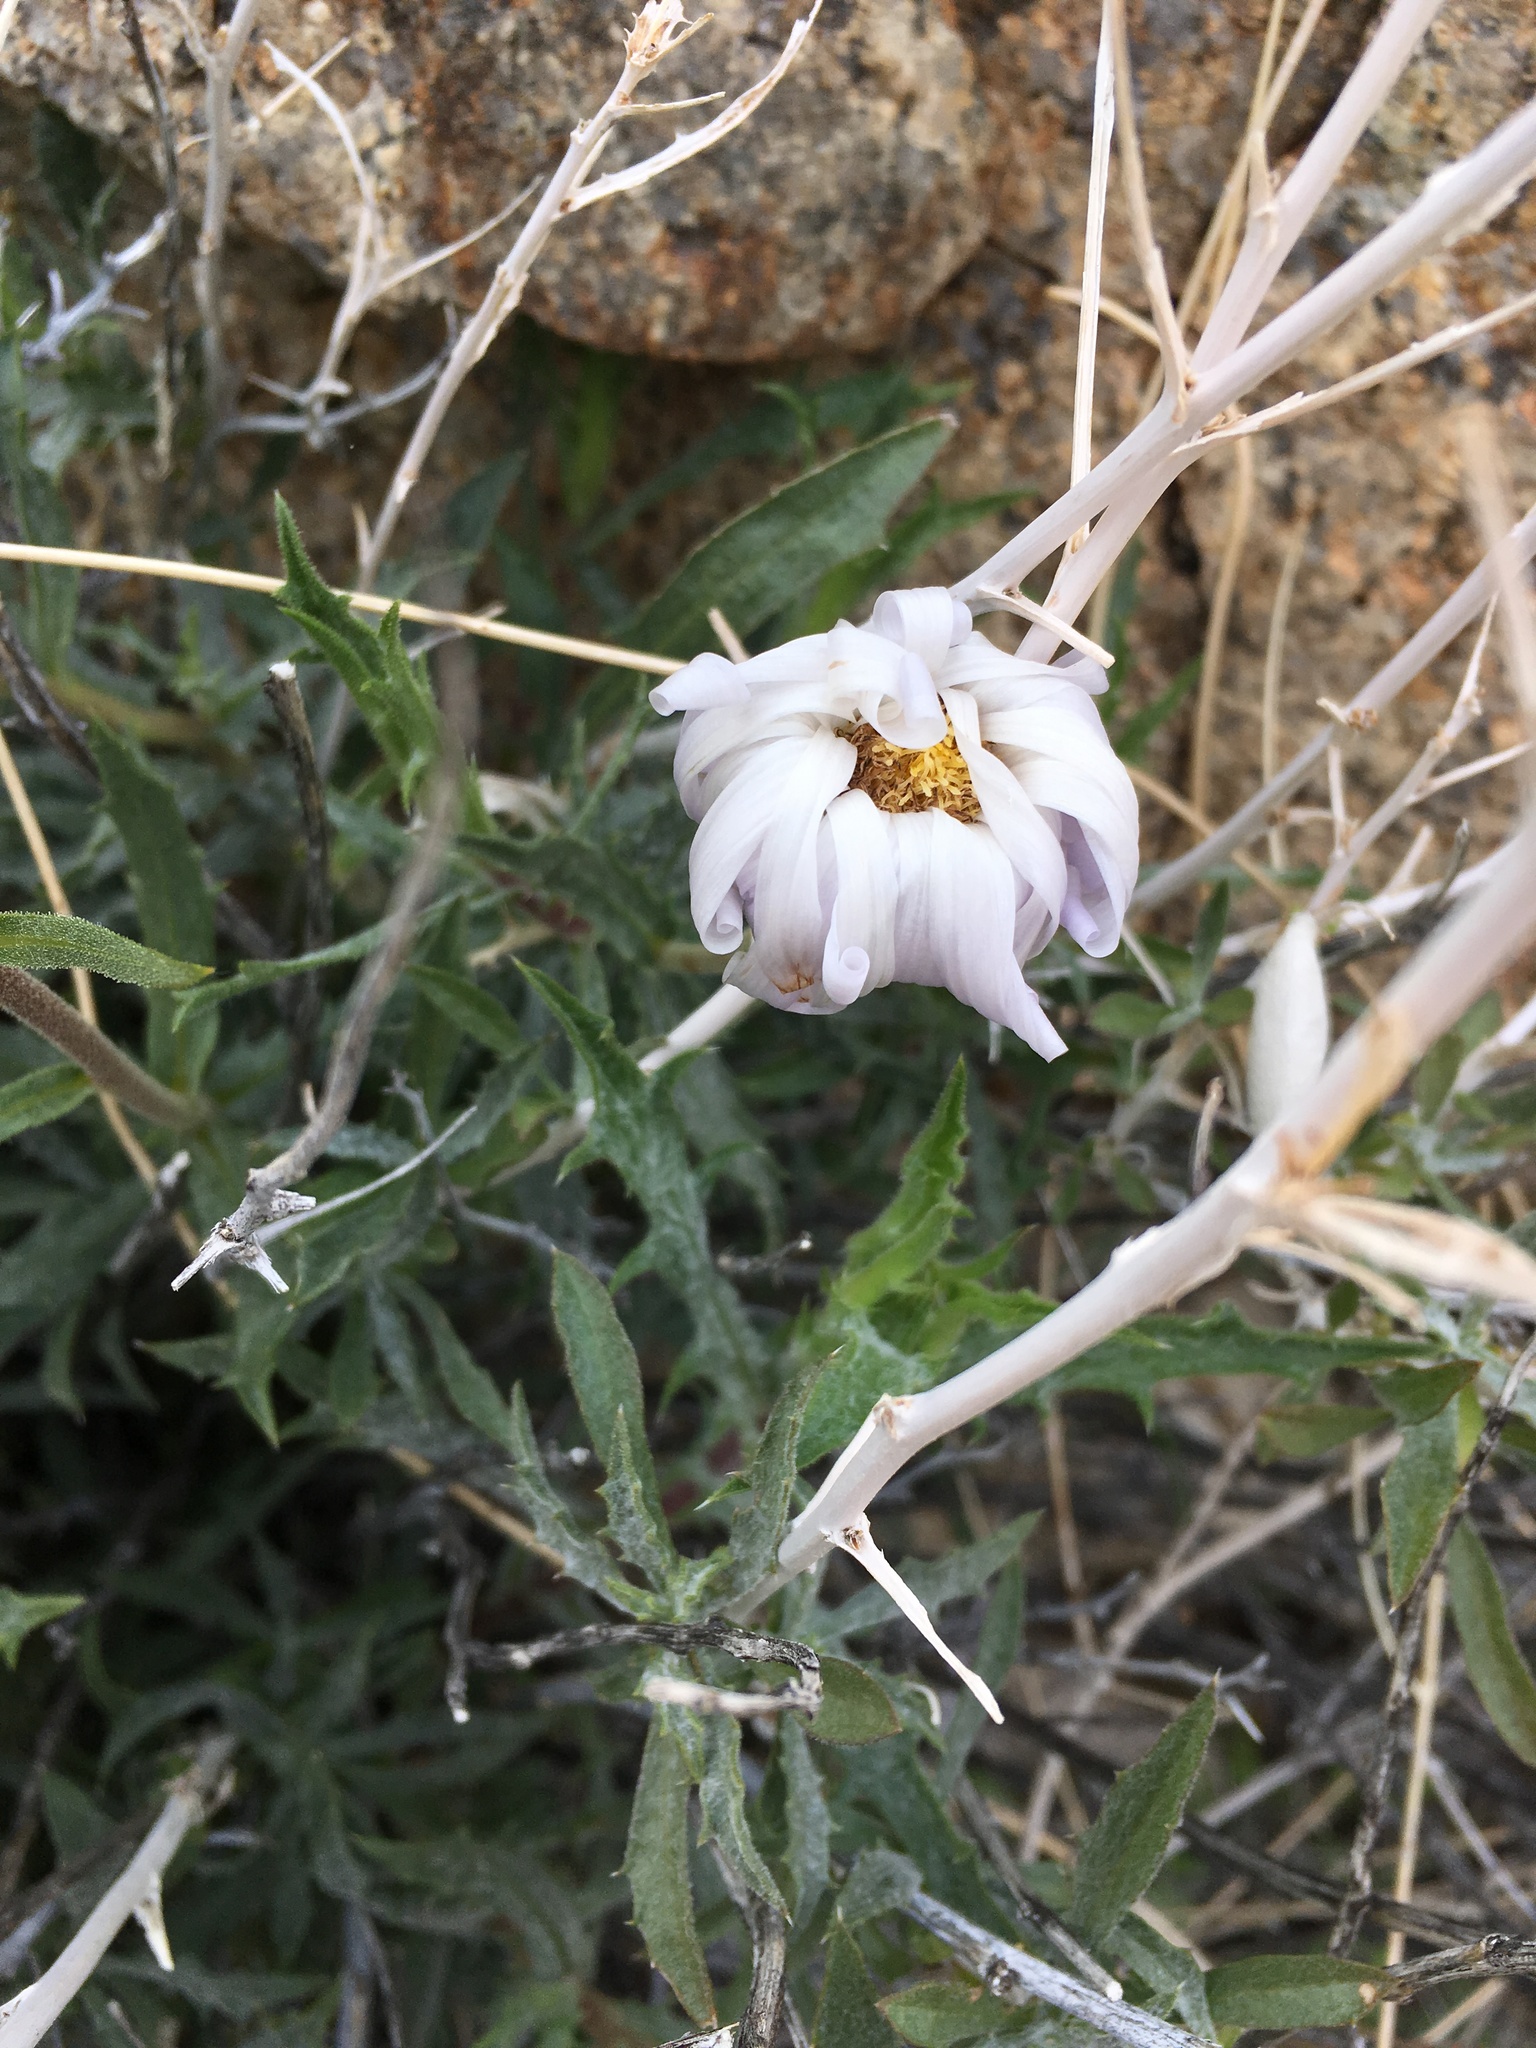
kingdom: Plantae
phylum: Tracheophyta
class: Magnoliopsida
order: Asterales
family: Asteraceae
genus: Xylorhiza
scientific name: Xylorhiza tortifolia
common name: Hurt-leaf woody-aster
